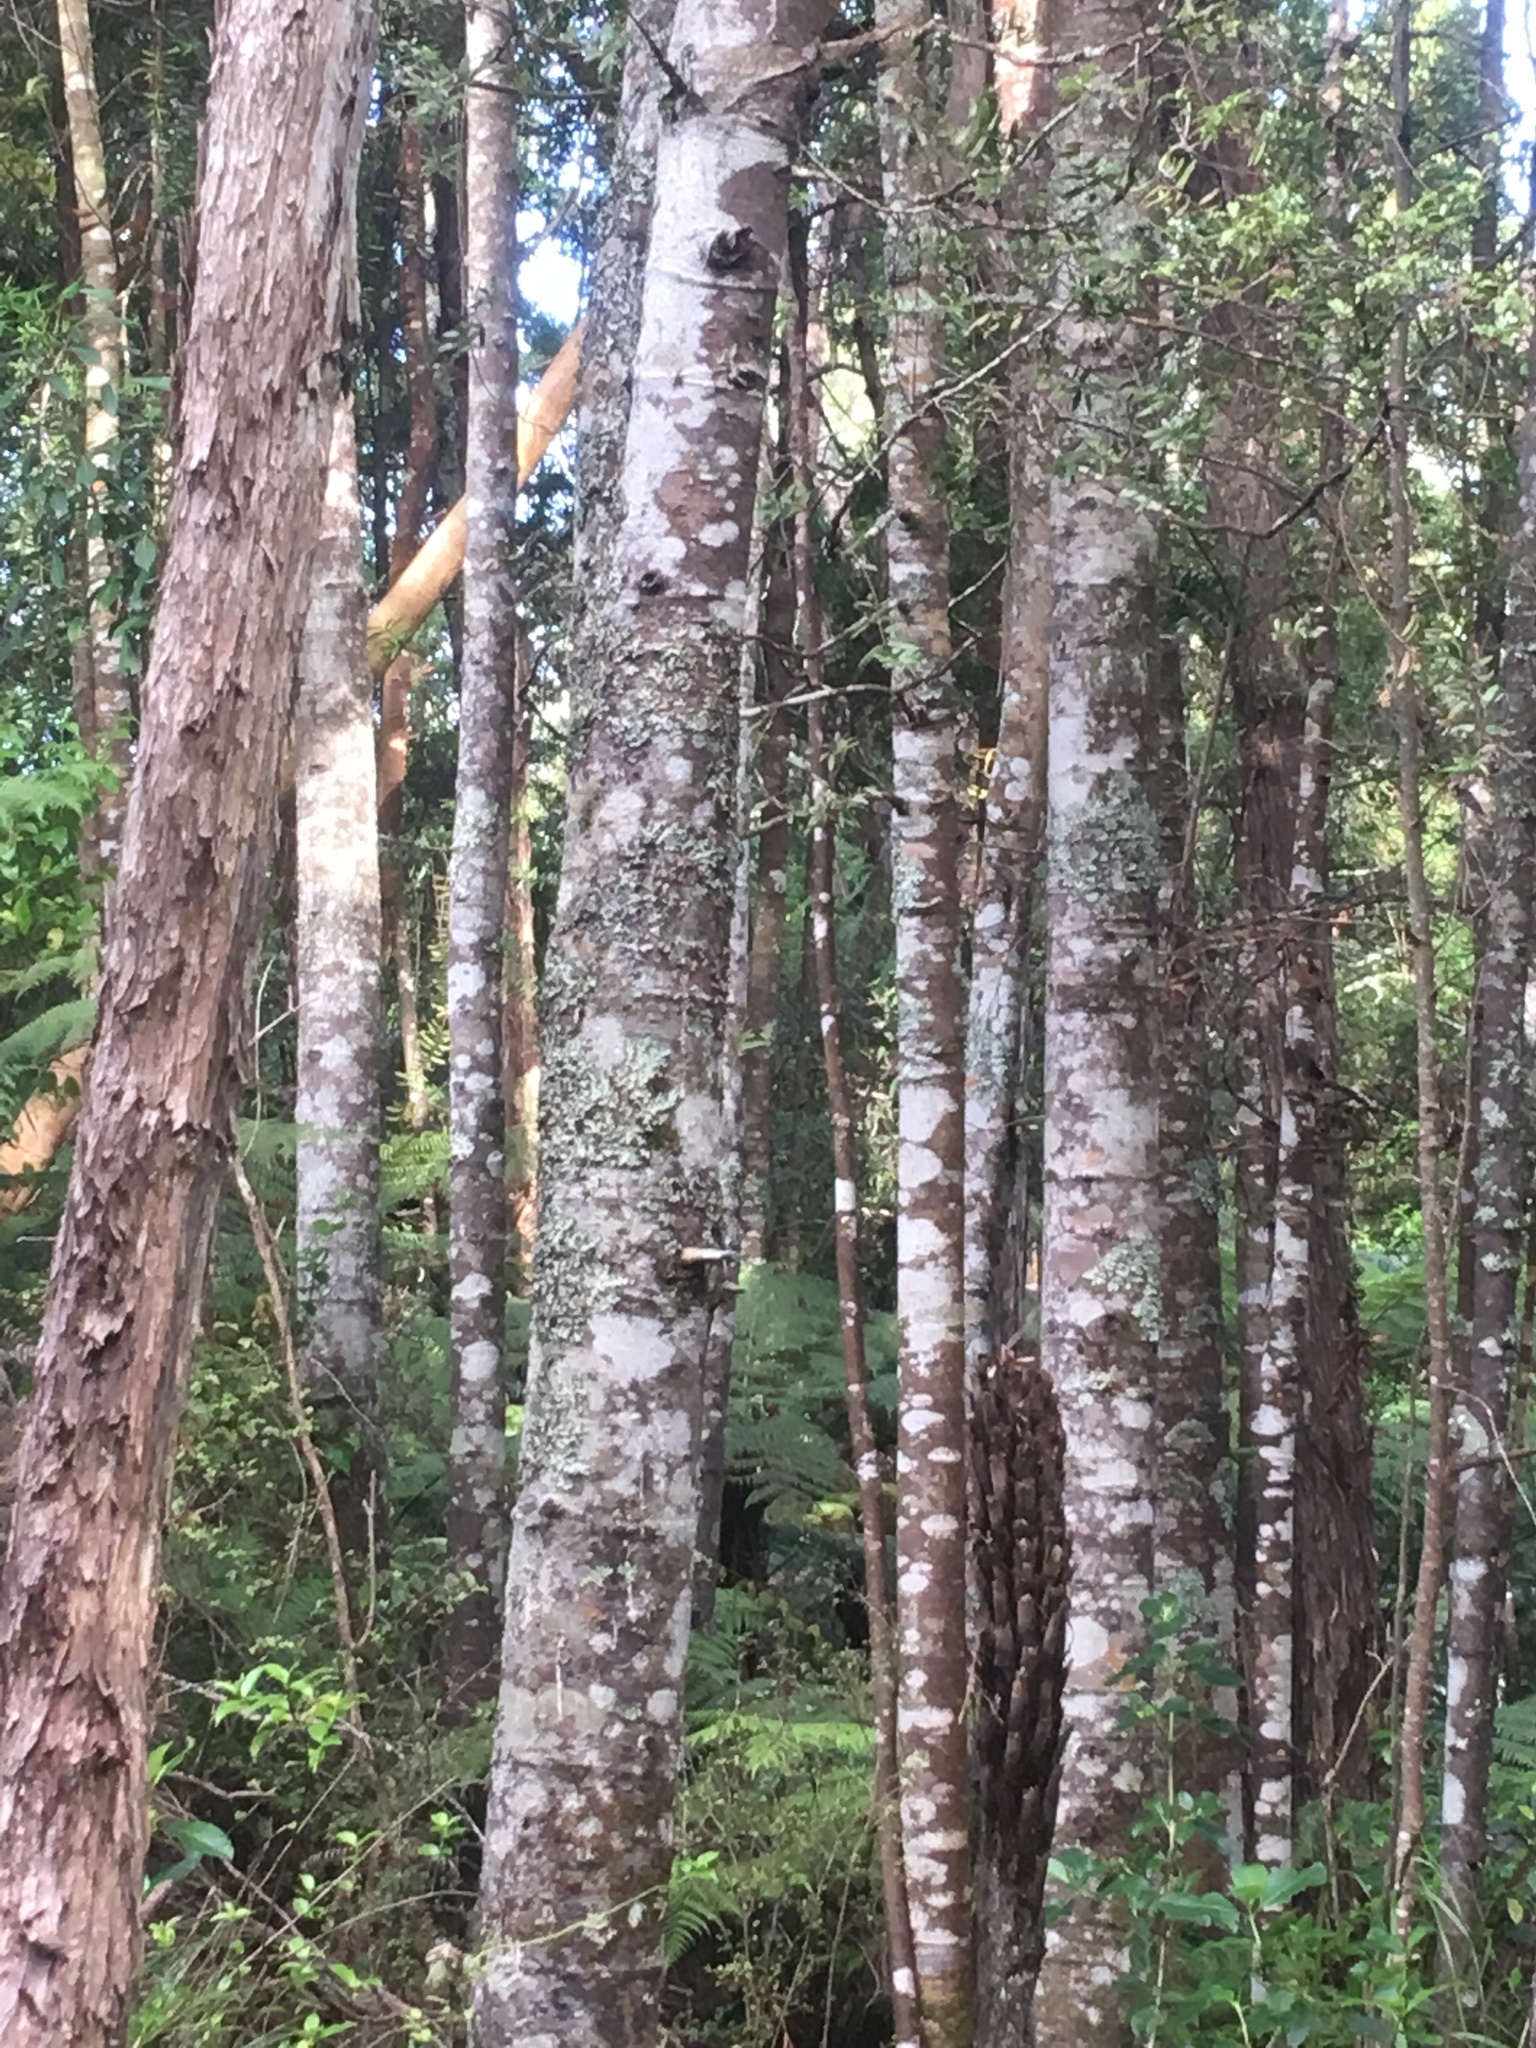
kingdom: Plantae
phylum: Tracheophyta
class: Pinopsida
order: Pinales
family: Araucariaceae
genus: Agathis
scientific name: Agathis australis
